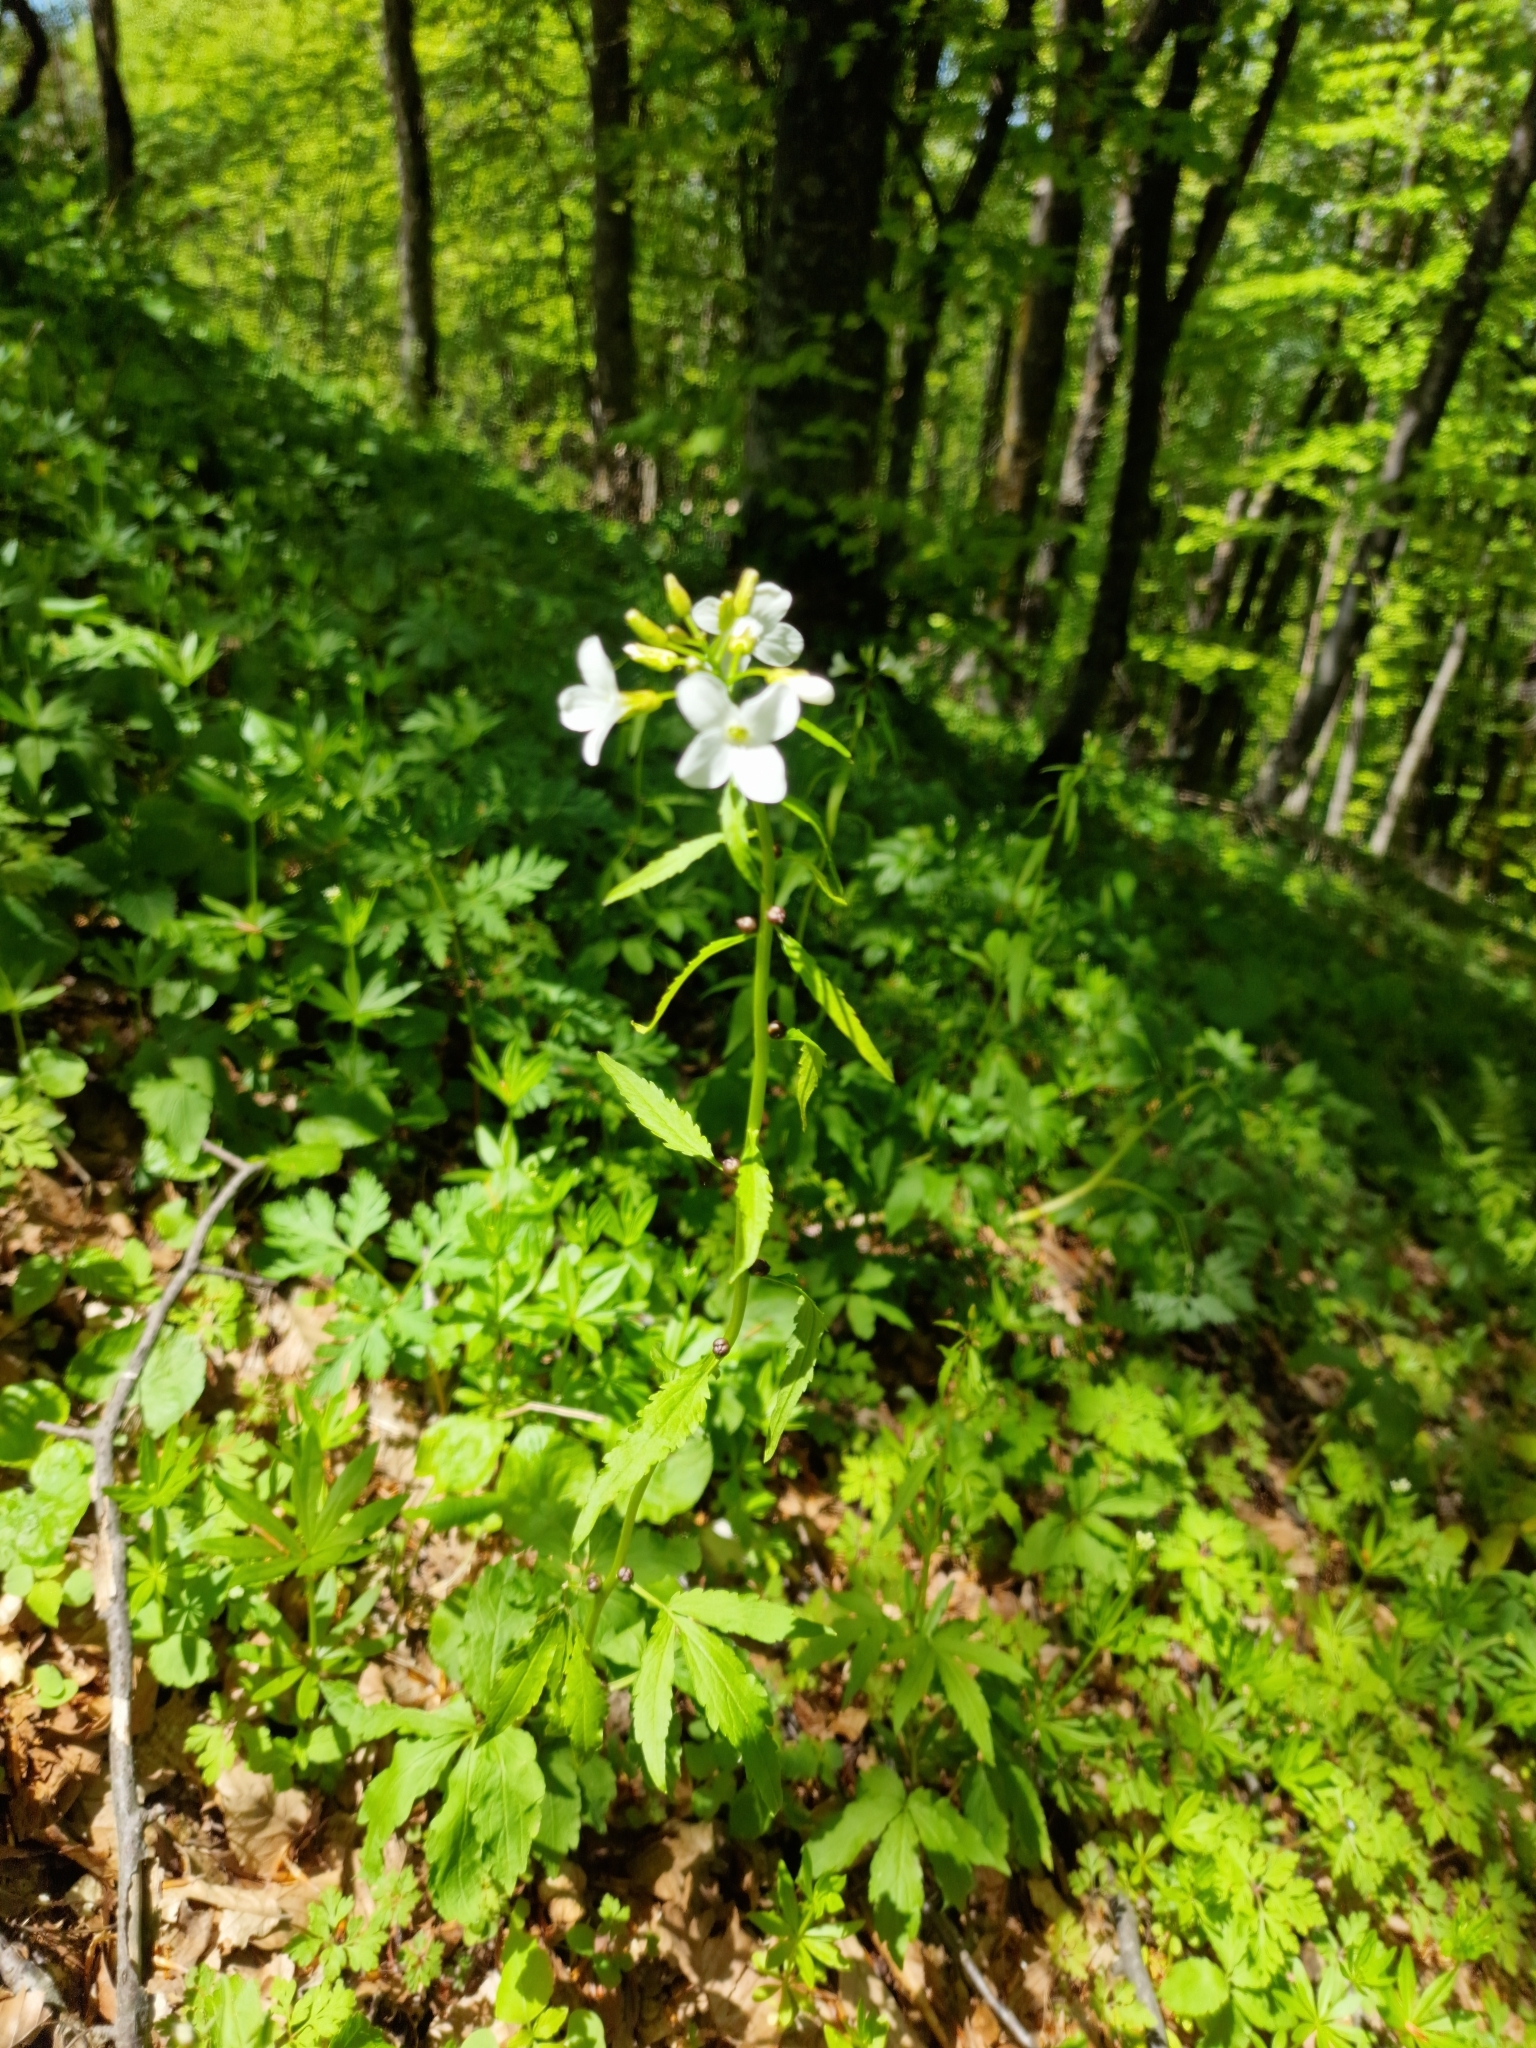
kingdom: Plantae
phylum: Tracheophyta
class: Magnoliopsida
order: Brassicales
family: Brassicaceae
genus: Cardamine
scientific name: Cardamine bulbifera
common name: Coralroot bittercress
